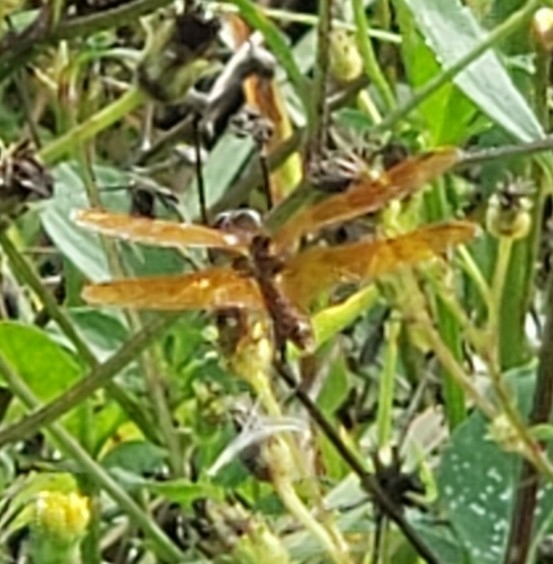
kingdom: Animalia
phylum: Arthropoda
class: Insecta
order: Odonata
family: Libellulidae
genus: Perithemis
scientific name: Perithemis tenera
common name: Eastern amberwing
